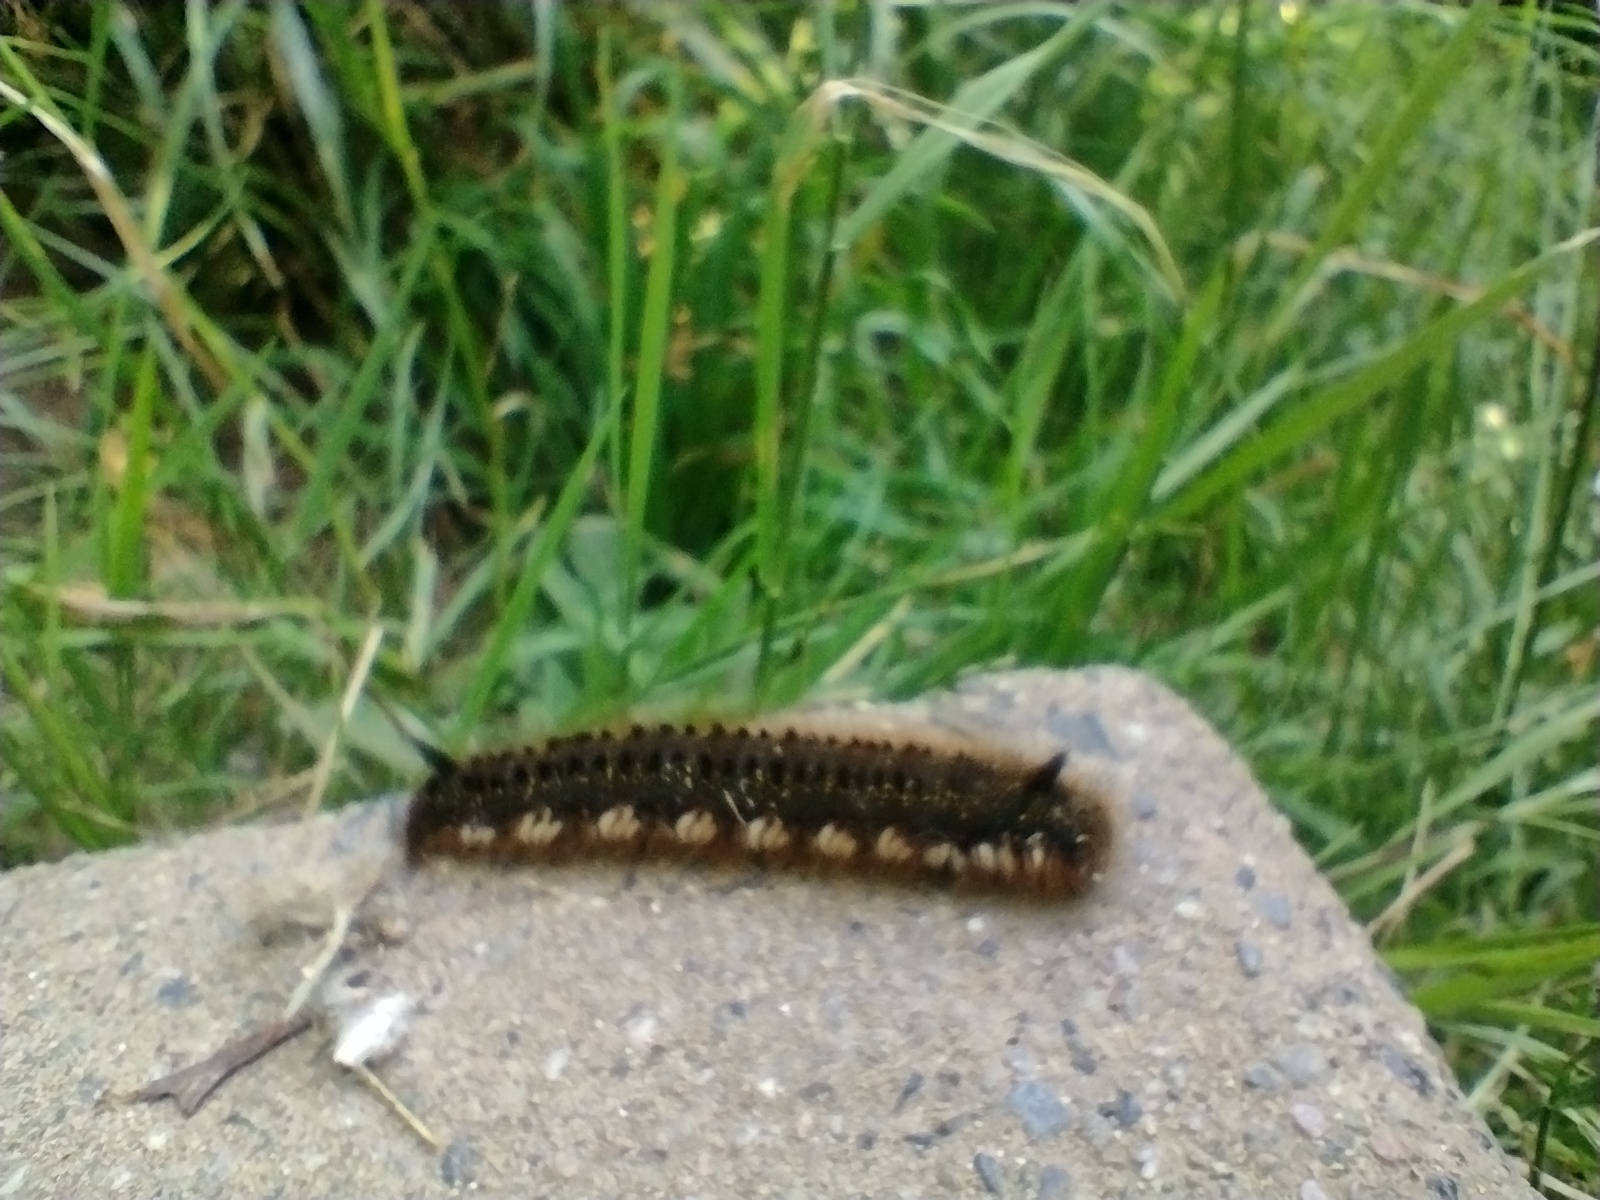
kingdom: Animalia
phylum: Arthropoda
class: Insecta
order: Lepidoptera
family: Lasiocampidae
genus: Euthrix
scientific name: Euthrix potatoria
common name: Drinker
